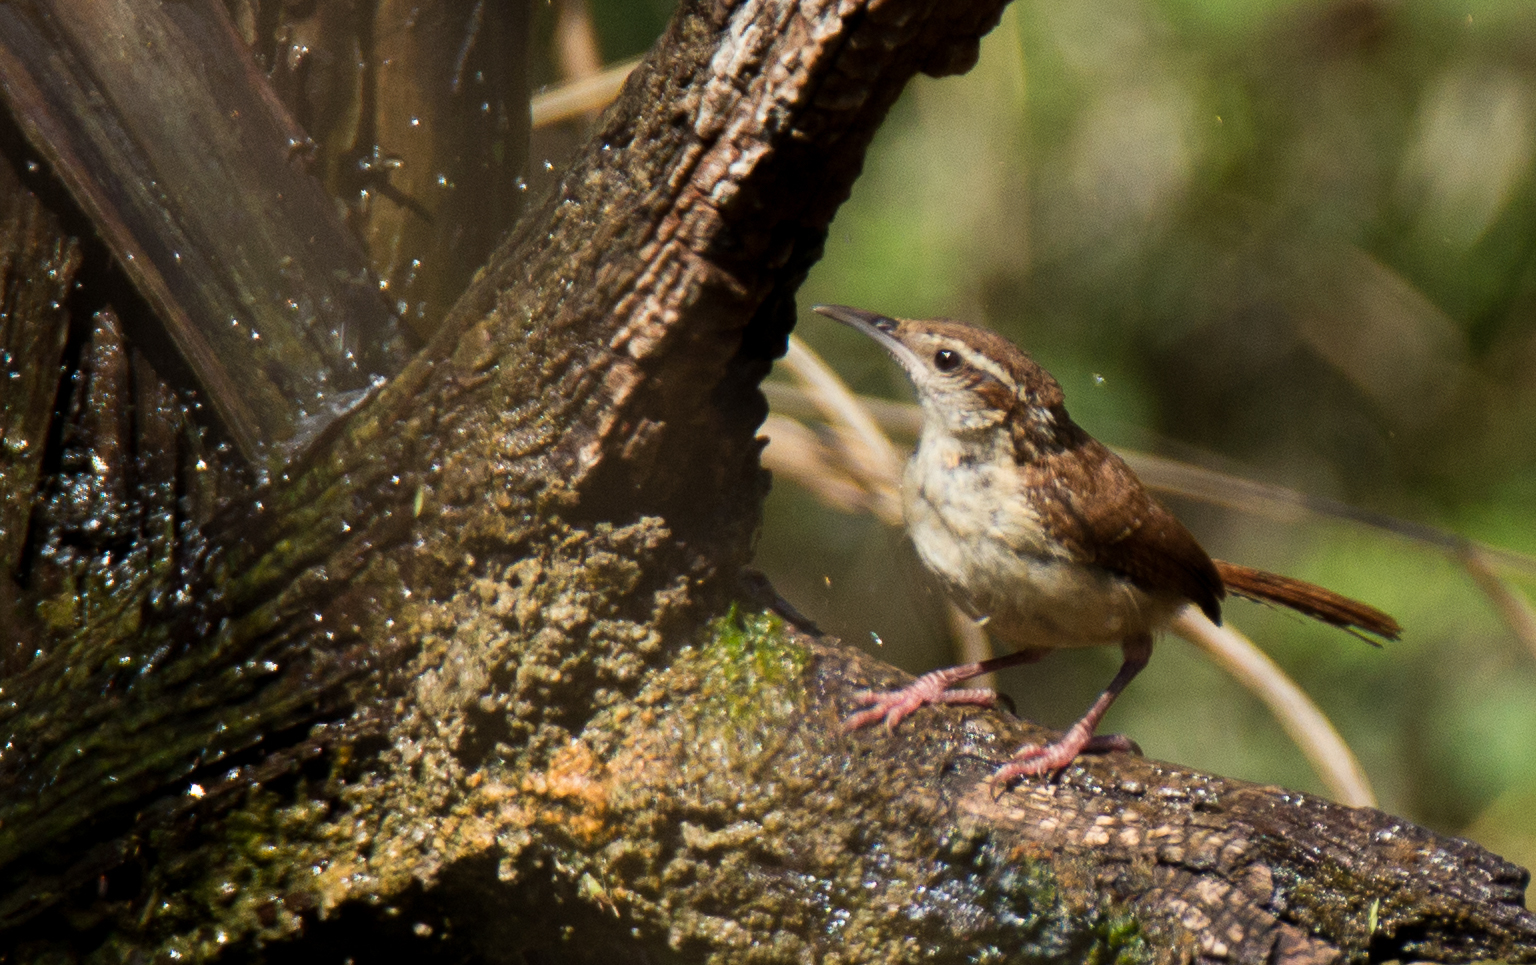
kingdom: Animalia
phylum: Chordata
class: Aves
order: Passeriformes
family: Troglodytidae
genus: Thryothorus
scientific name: Thryothorus ludovicianus
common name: Carolina wren
